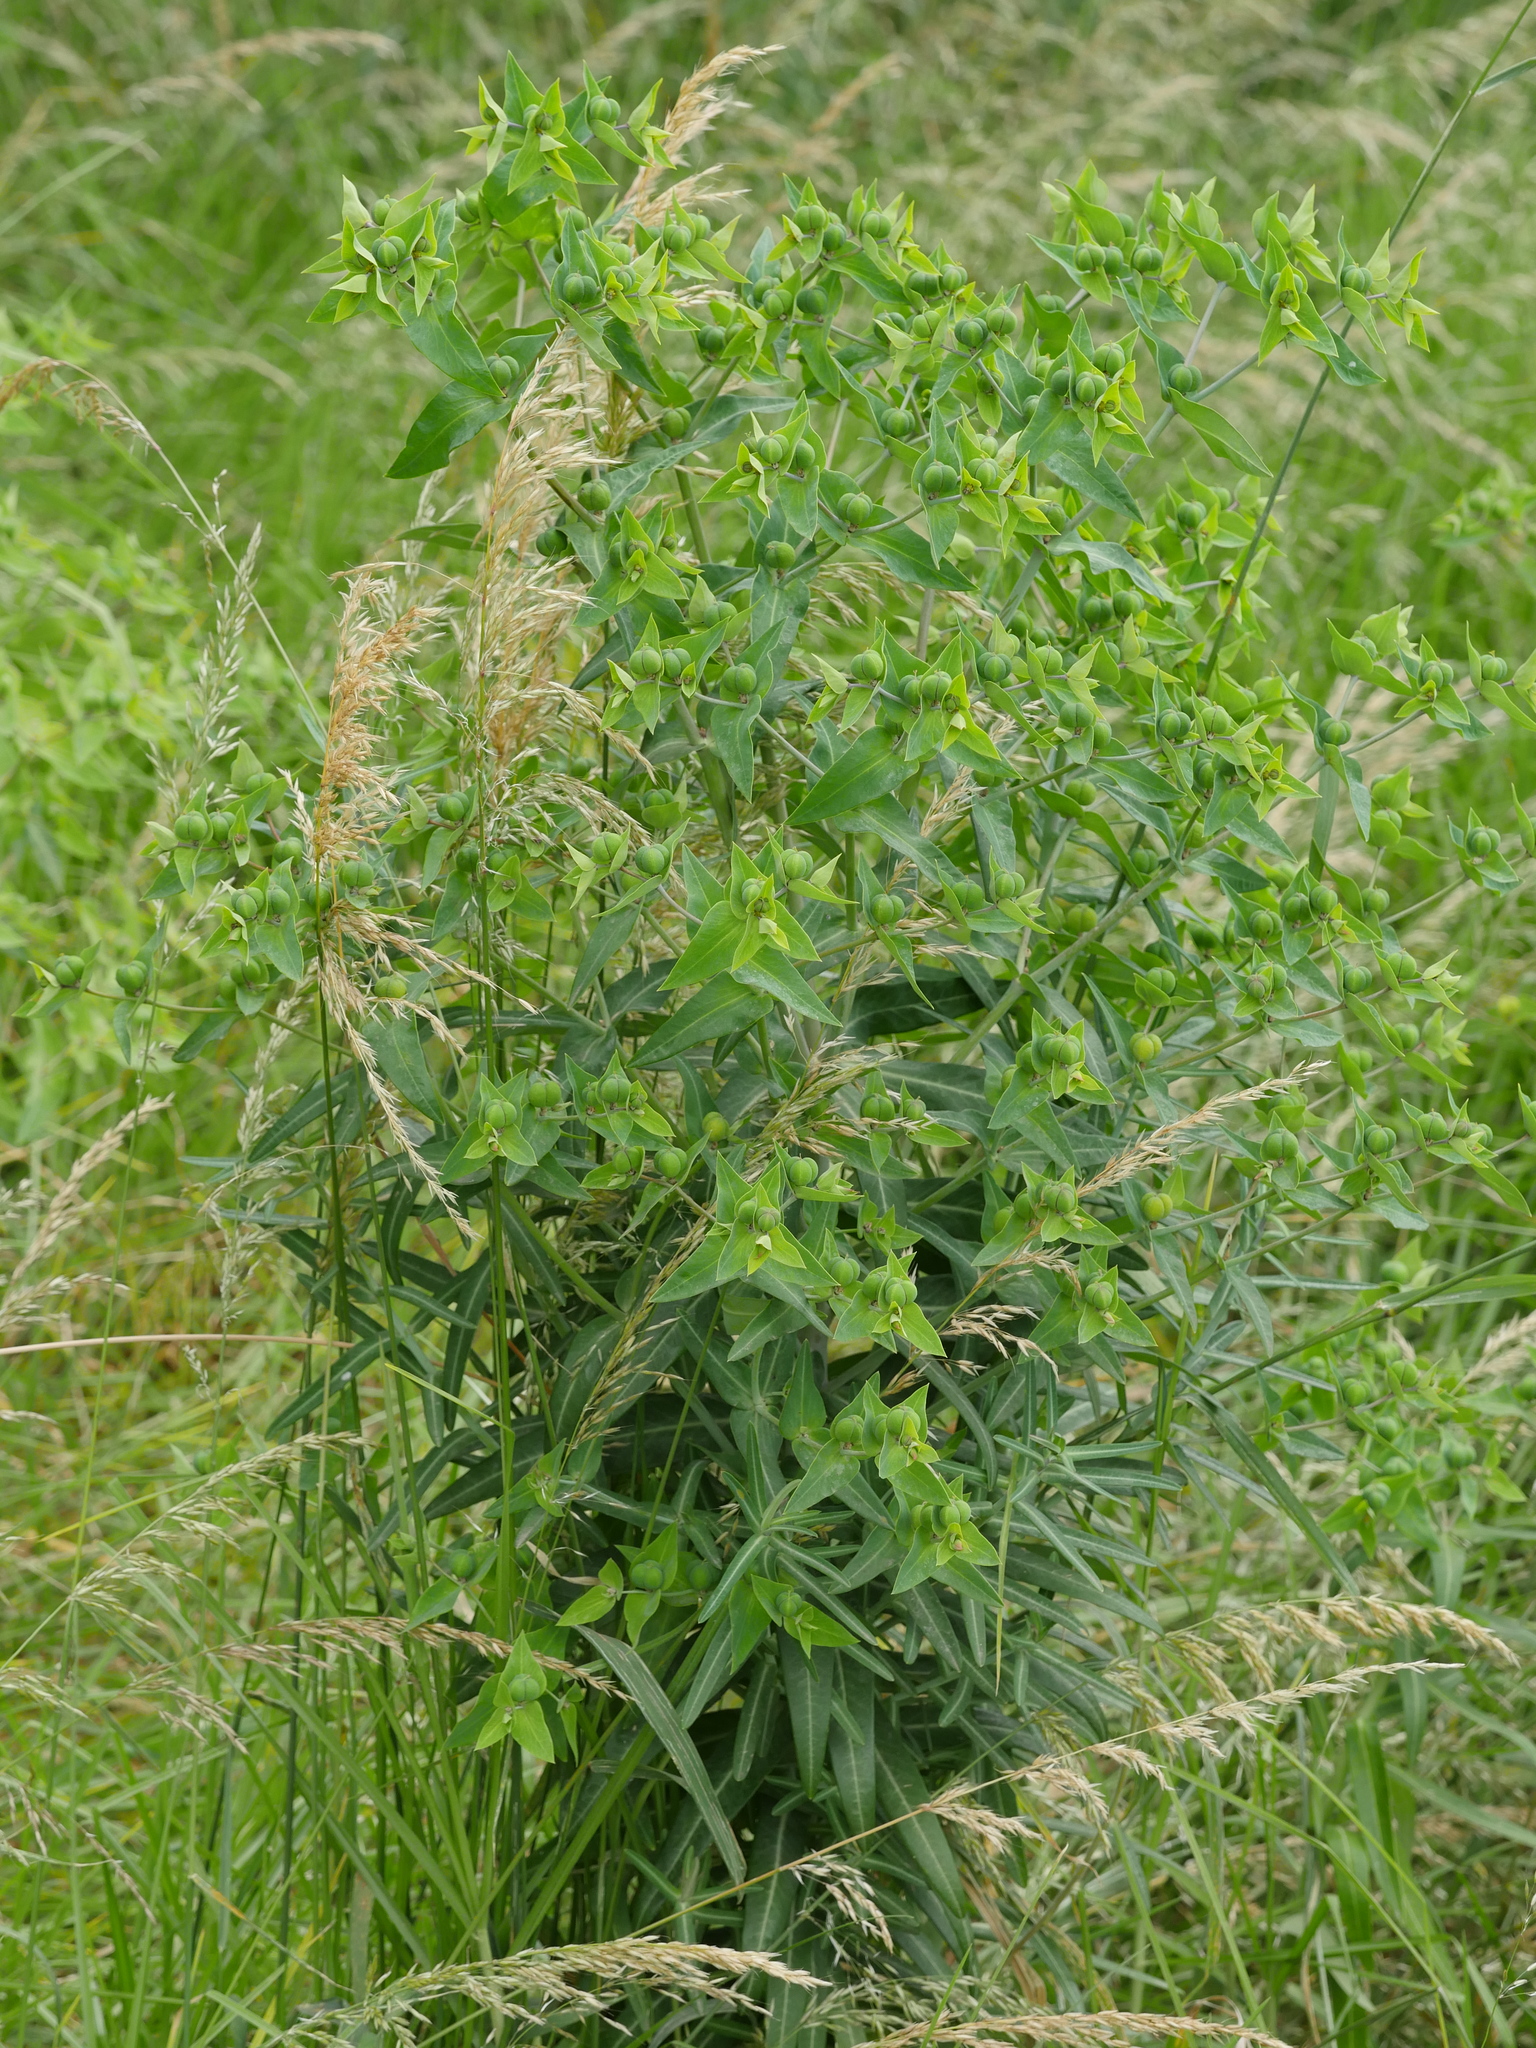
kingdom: Plantae
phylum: Tracheophyta
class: Magnoliopsida
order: Malpighiales
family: Euphorbiaceae
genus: Euphorbia
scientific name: Euphorbia lathyris
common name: Caper spurge
